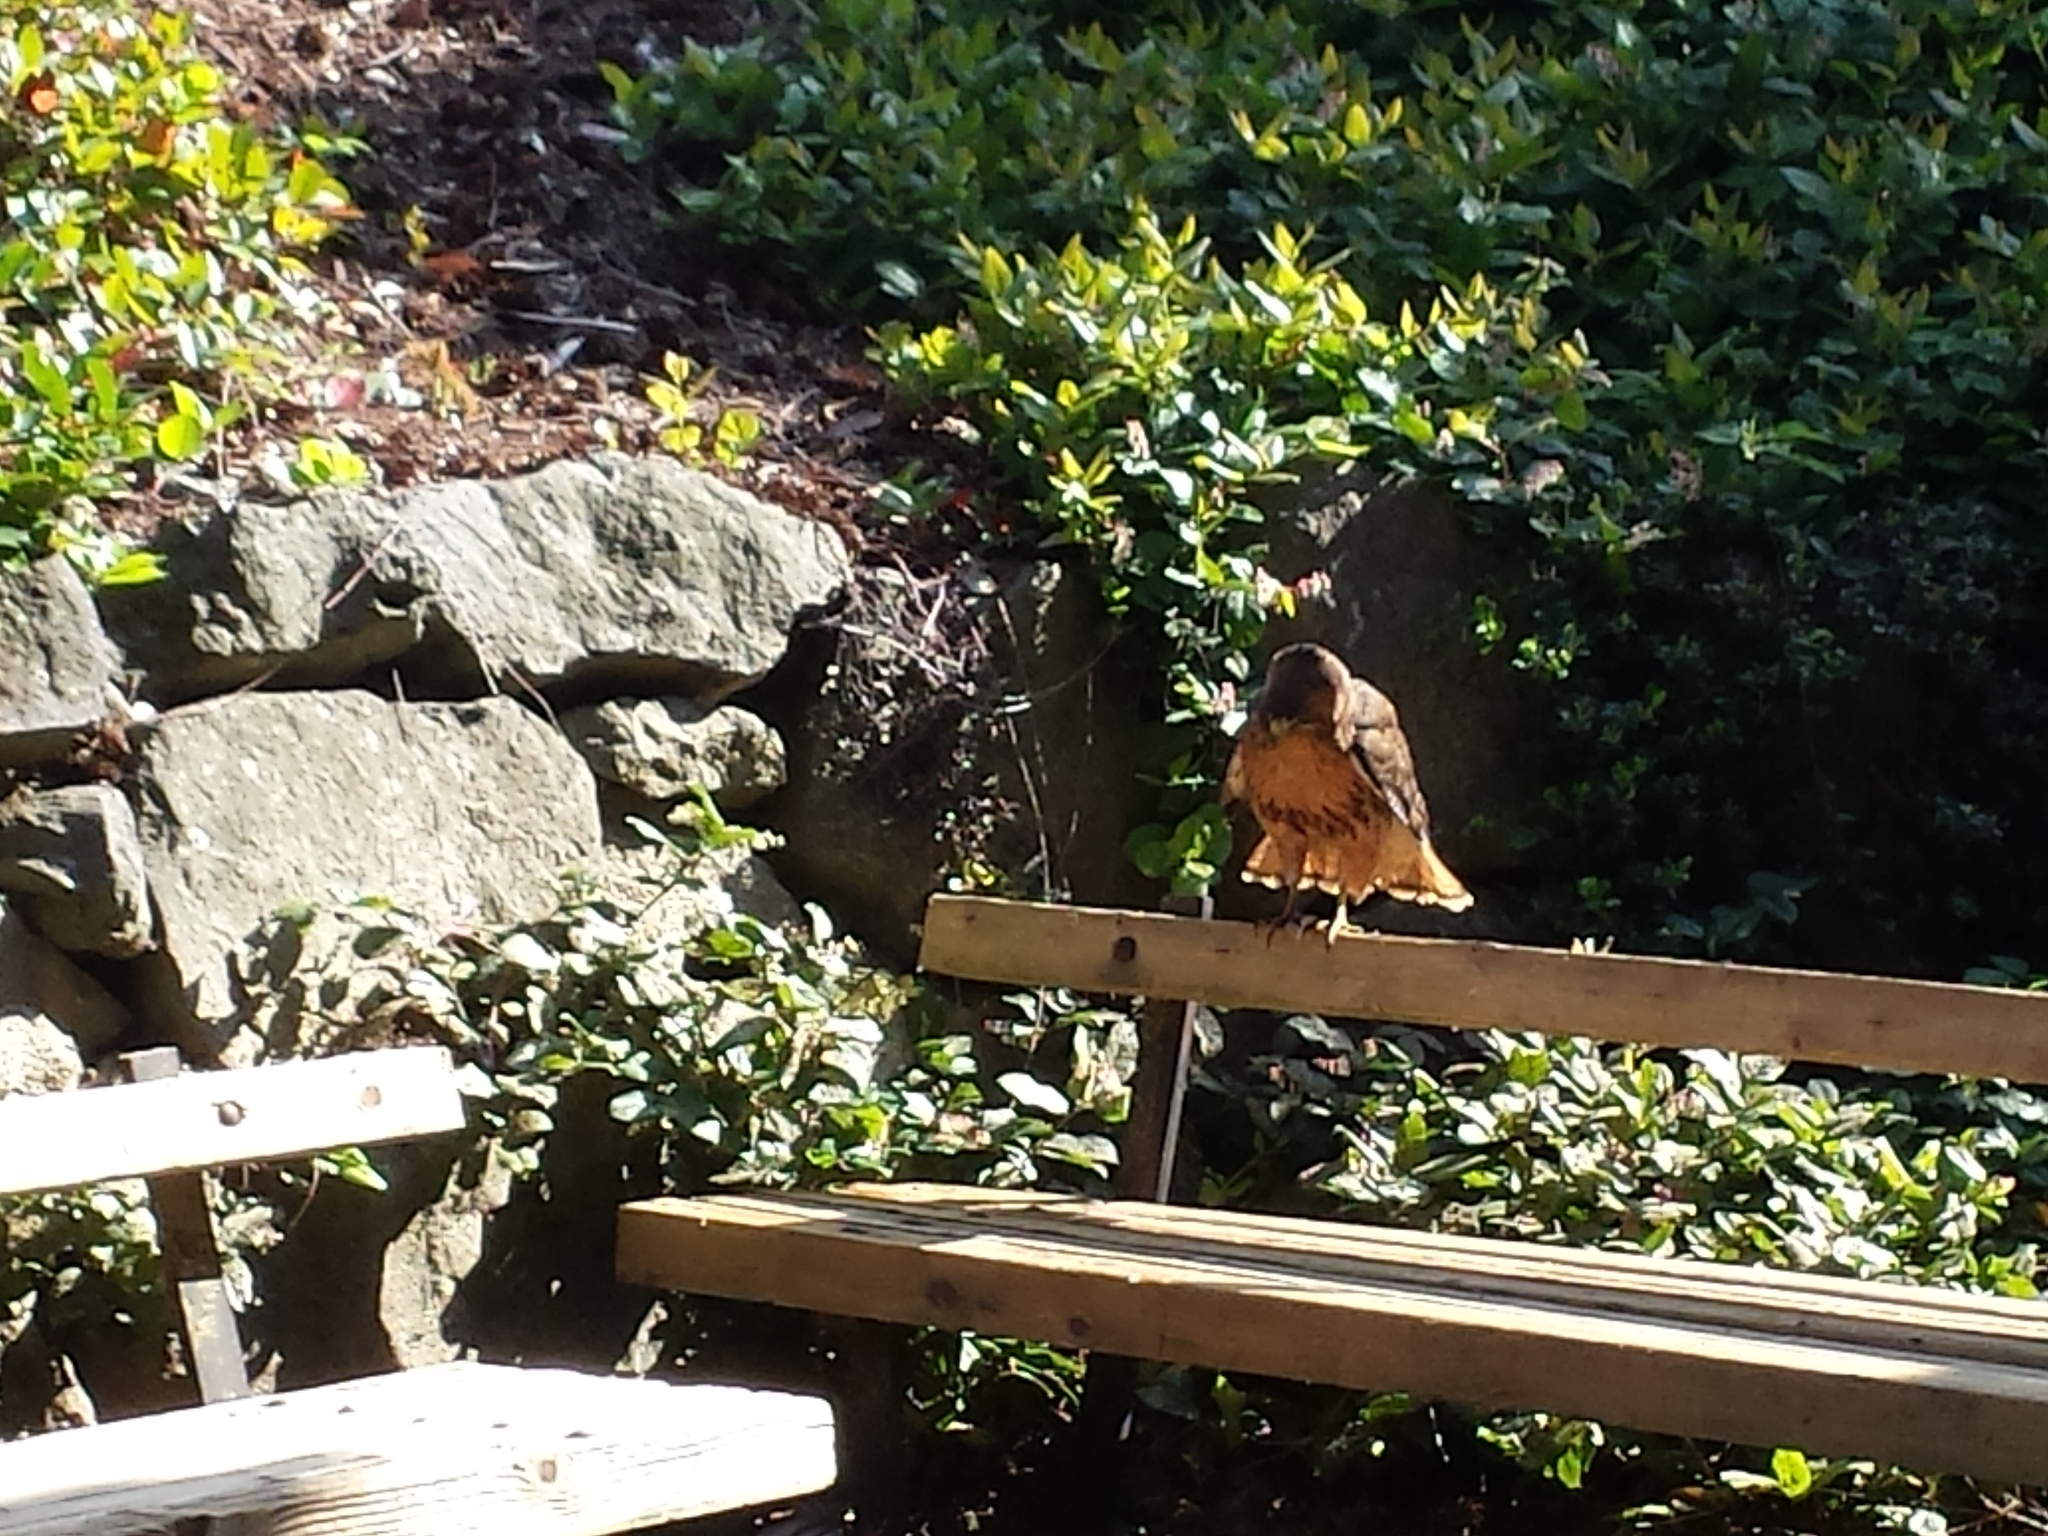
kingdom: Animalia
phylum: Chordata
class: Aves
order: Accipitriformes
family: Accipitridae
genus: Buteo
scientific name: Buteo jamaicensis
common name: Red-tailed hawk
